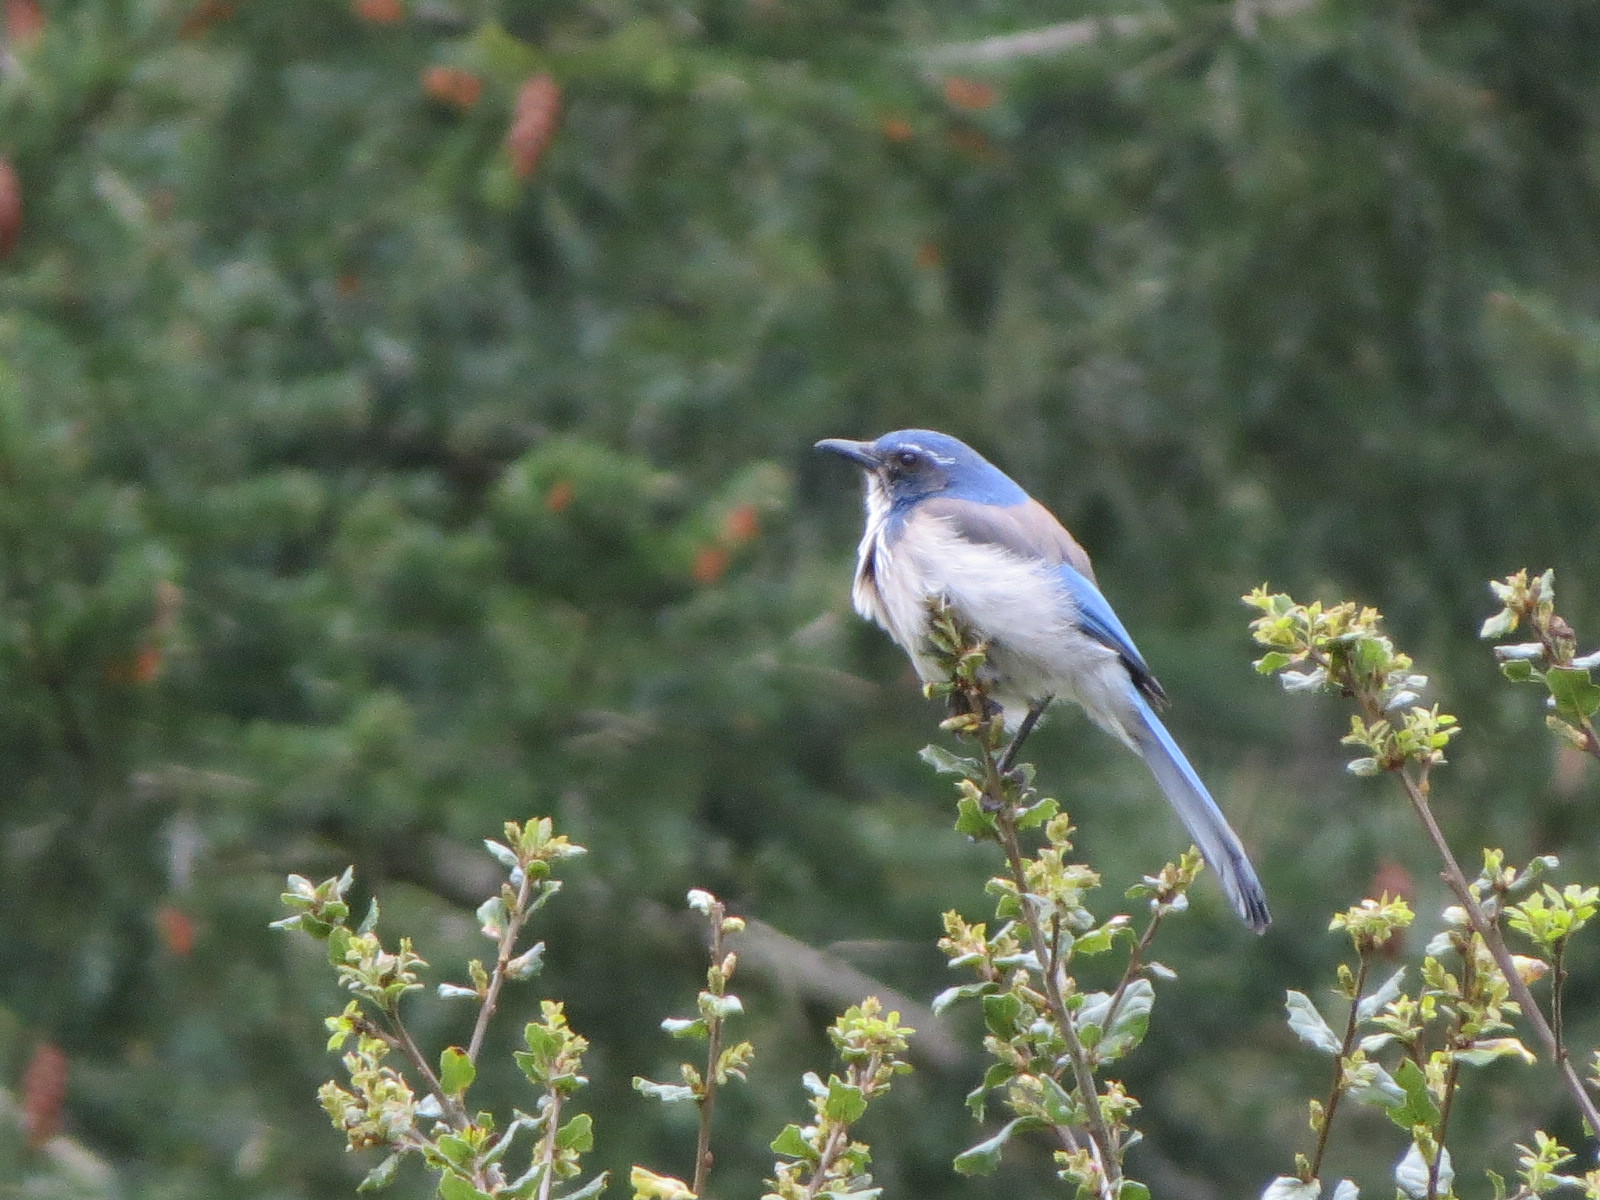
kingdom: Animalia
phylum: Chordata
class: Aves
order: Passeriformes
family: Corvidae
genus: Aphelocoma
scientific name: Aphelocoma californica
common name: California scrub-jay
